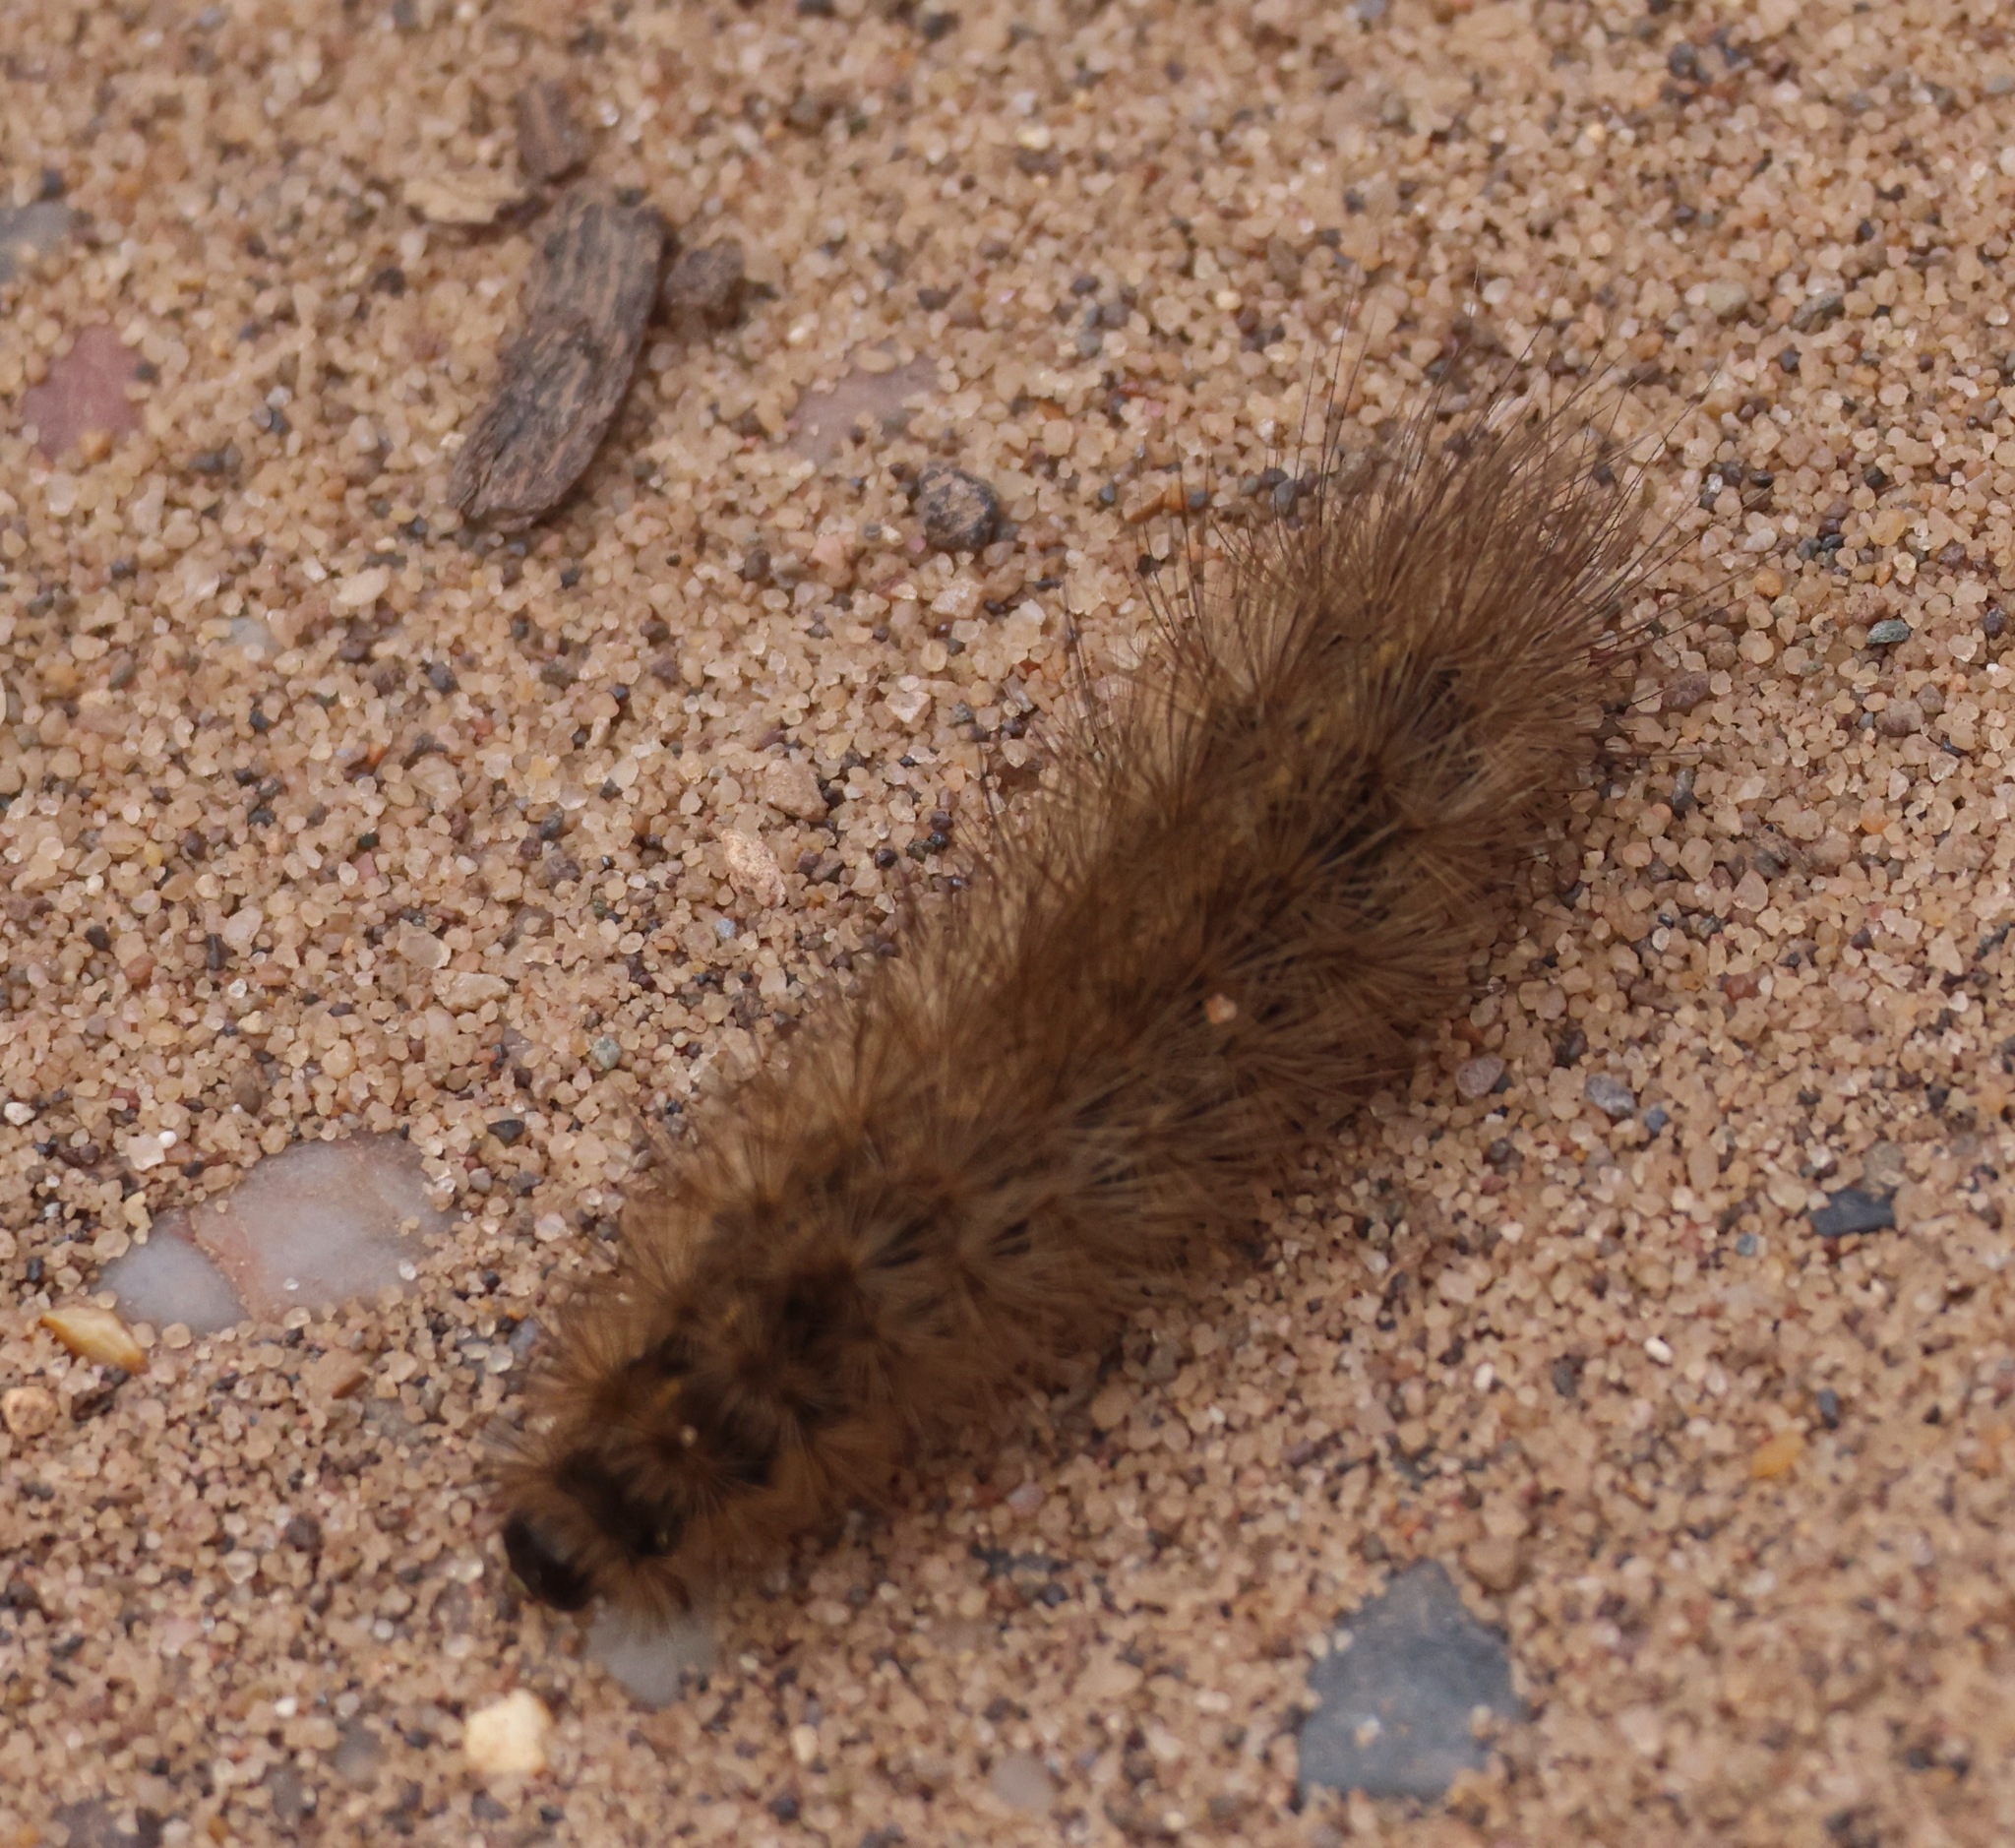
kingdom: Animalia
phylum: Arthropoda
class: Insecta
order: Lepidoptera
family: Erebidae
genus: Phragmatobia
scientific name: Phragmatobia fuliginosa
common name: Ruby tiger
